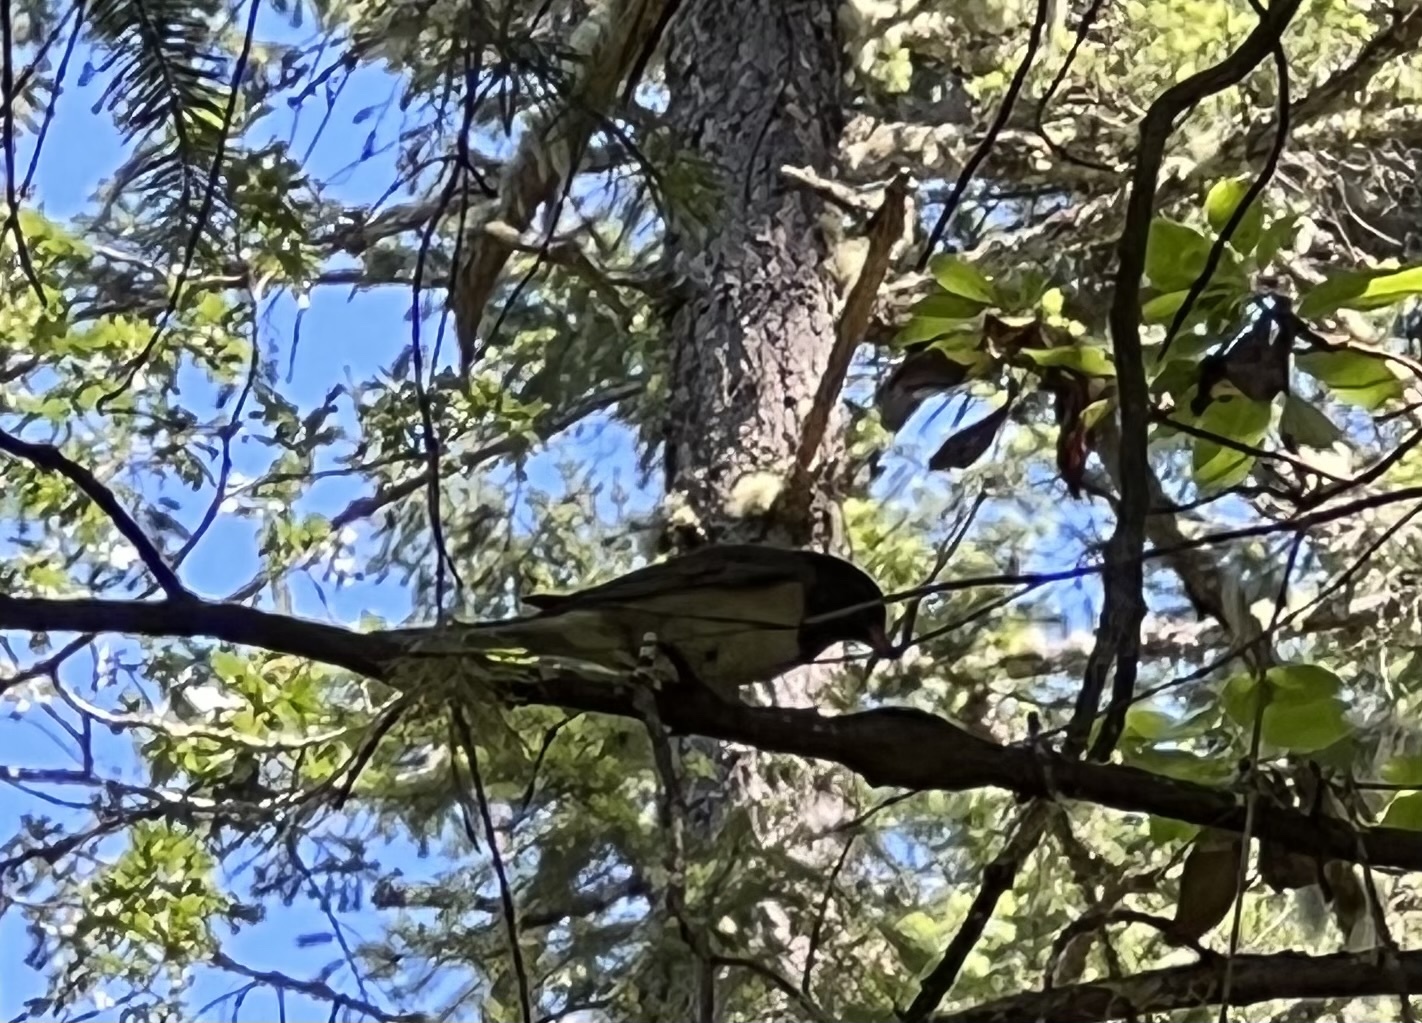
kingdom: Animalia
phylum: Chordata
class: Aves
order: Passeriformes
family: Passerellidae
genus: Junco
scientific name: Junco hyemalis
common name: Dark-eyed junco
